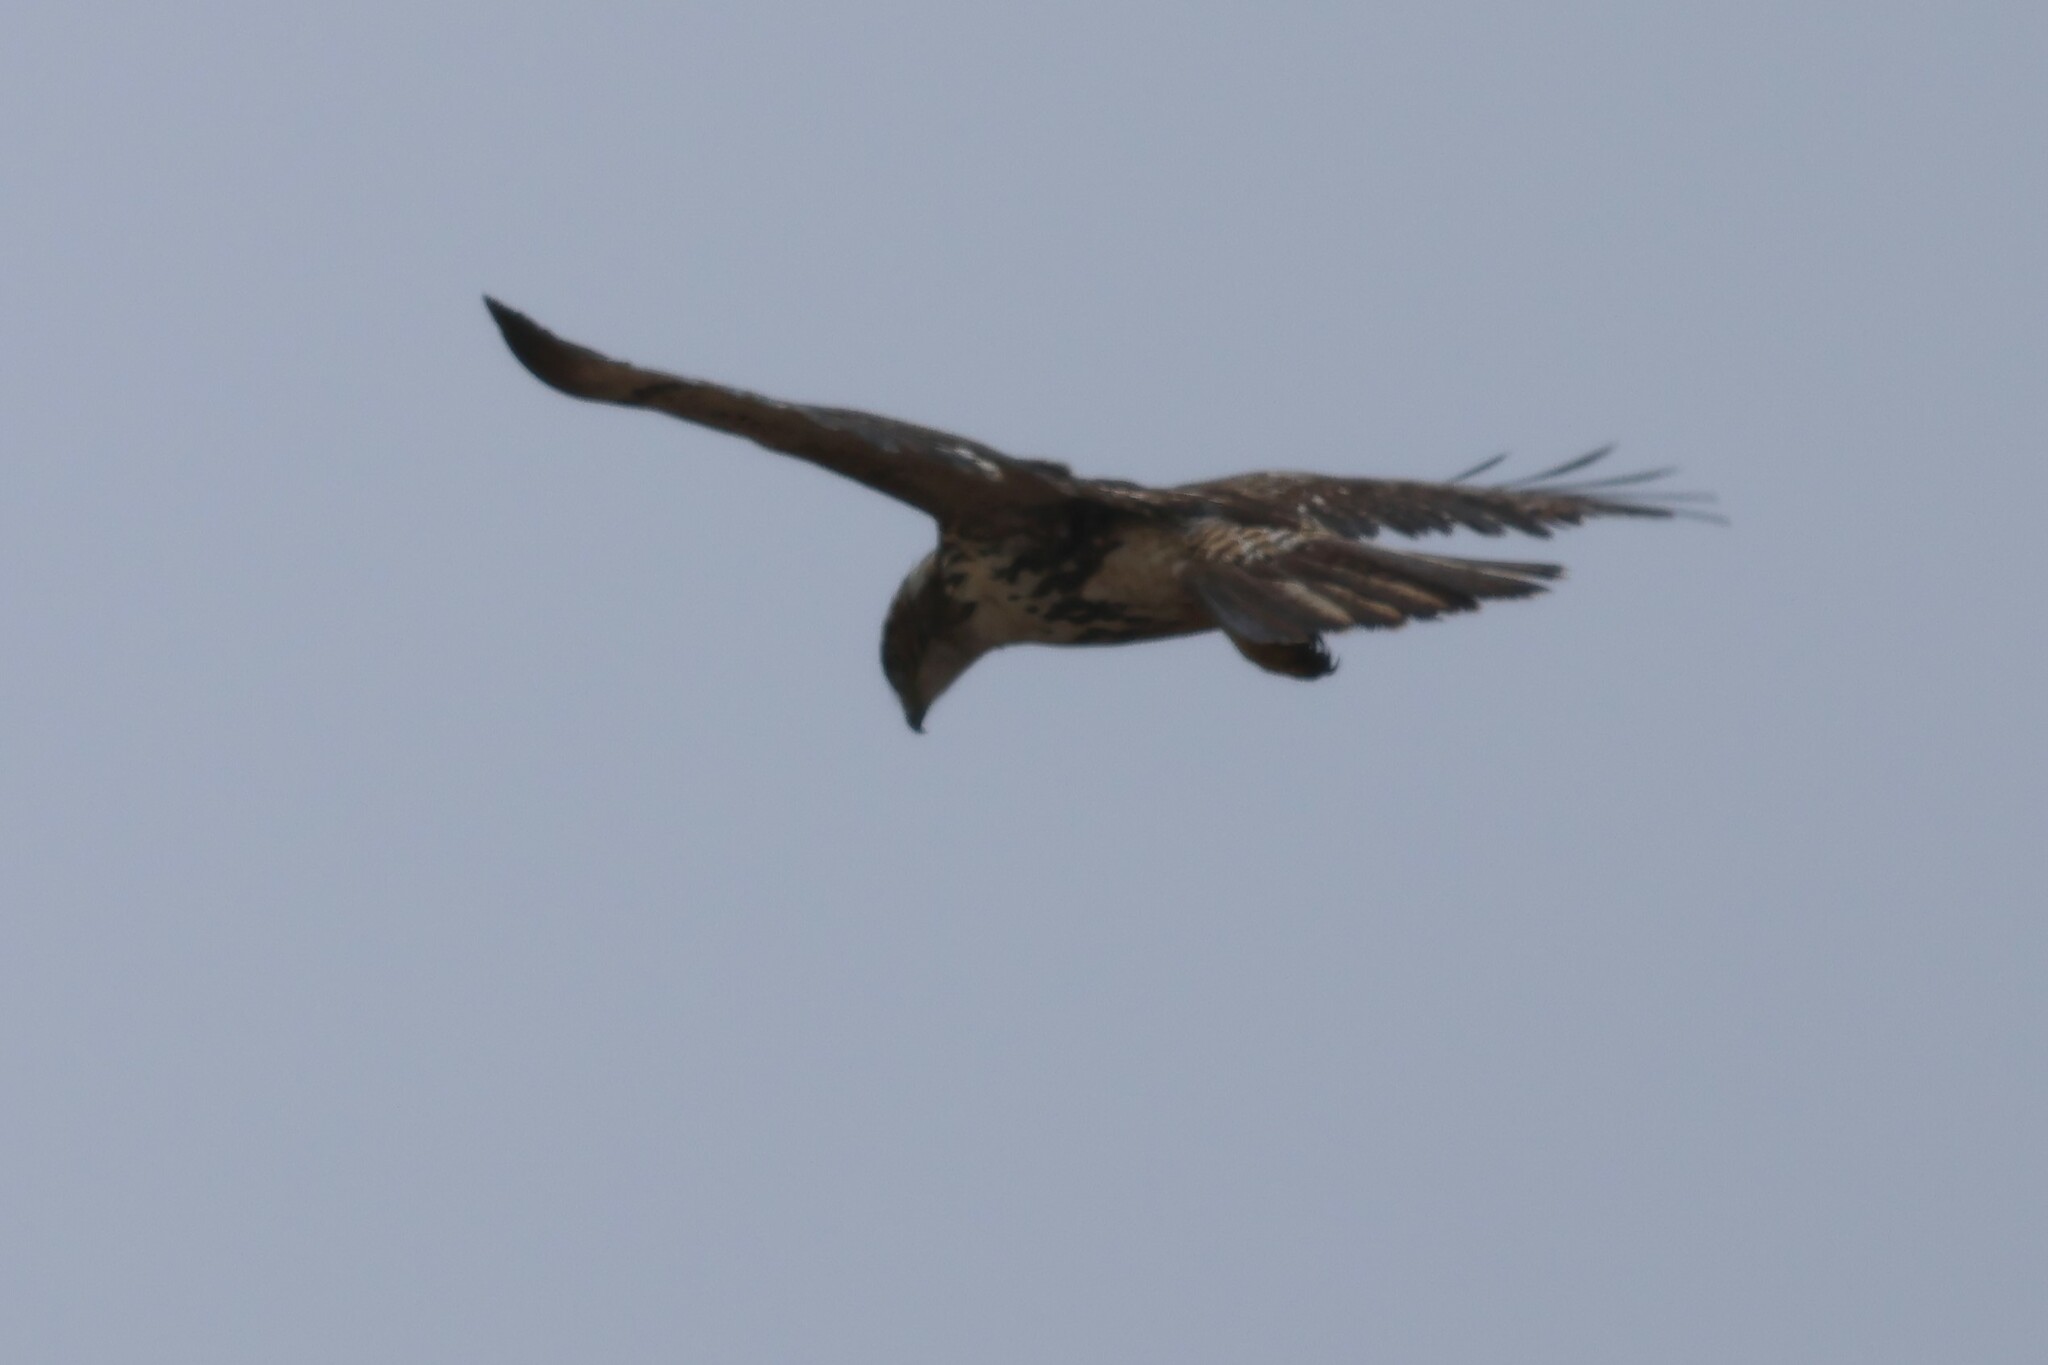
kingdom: Animalia
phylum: Chordata
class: Aves
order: Accipitriformes
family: Accipitridae
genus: Buteo
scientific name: Buteo jamaicensis
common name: Red-tailed hawk
